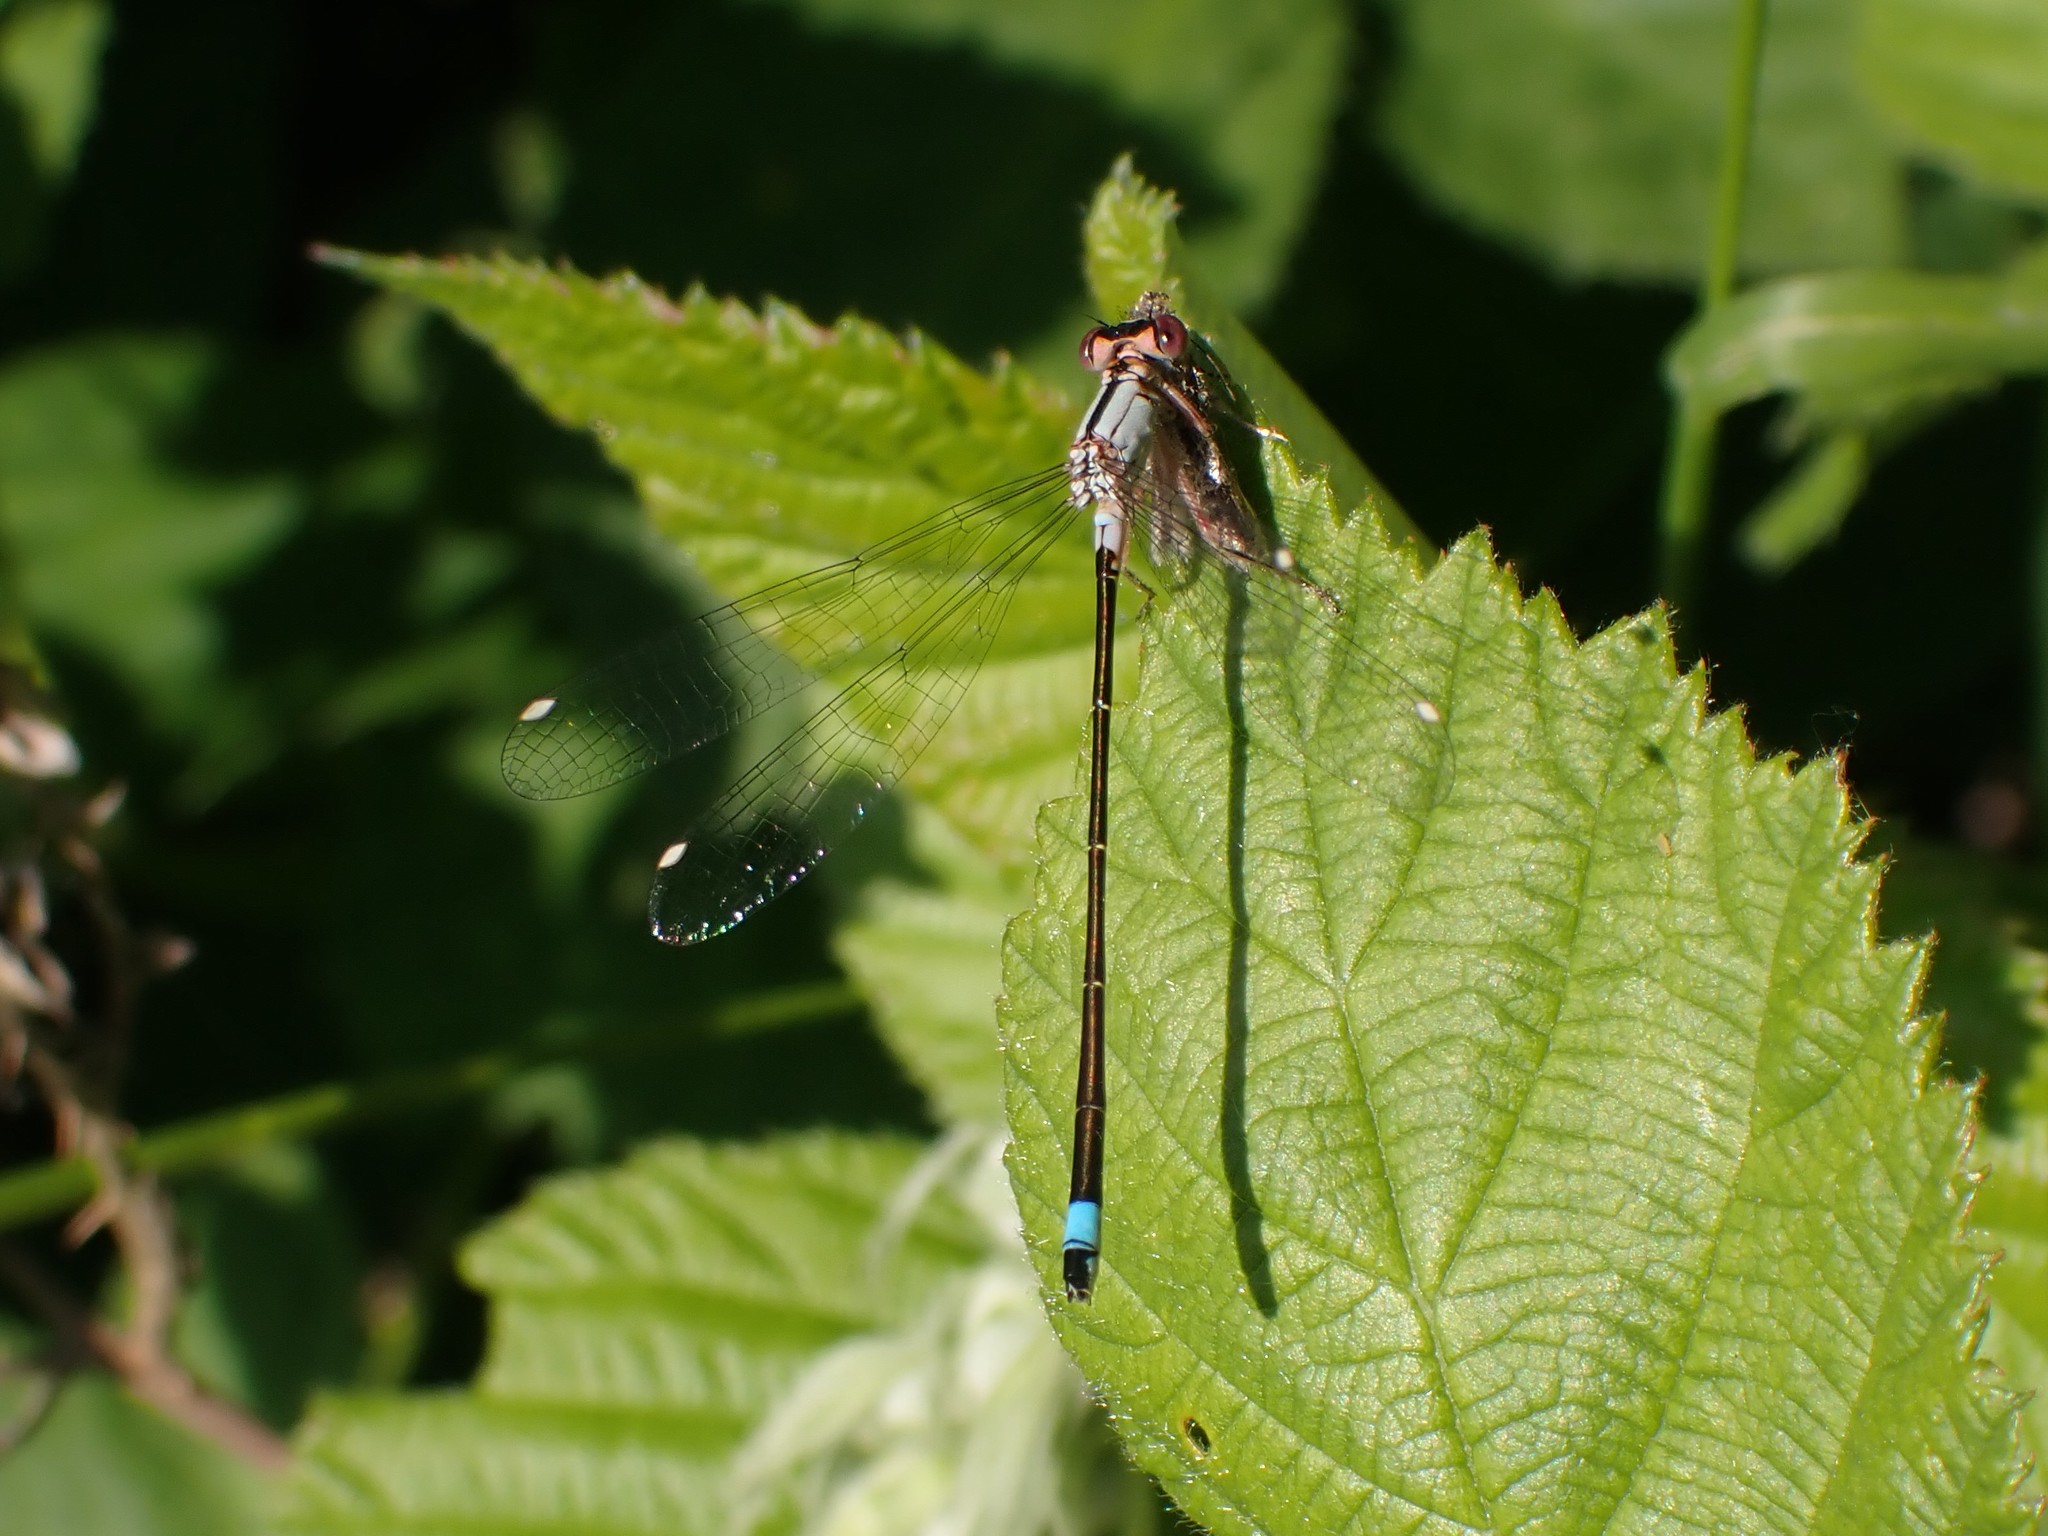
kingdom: Animalia
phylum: Arthropoda
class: Insecta
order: Odonata
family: Coenagrionidae
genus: Ischnura
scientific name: Ischnura cervula
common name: Pacific forktail
